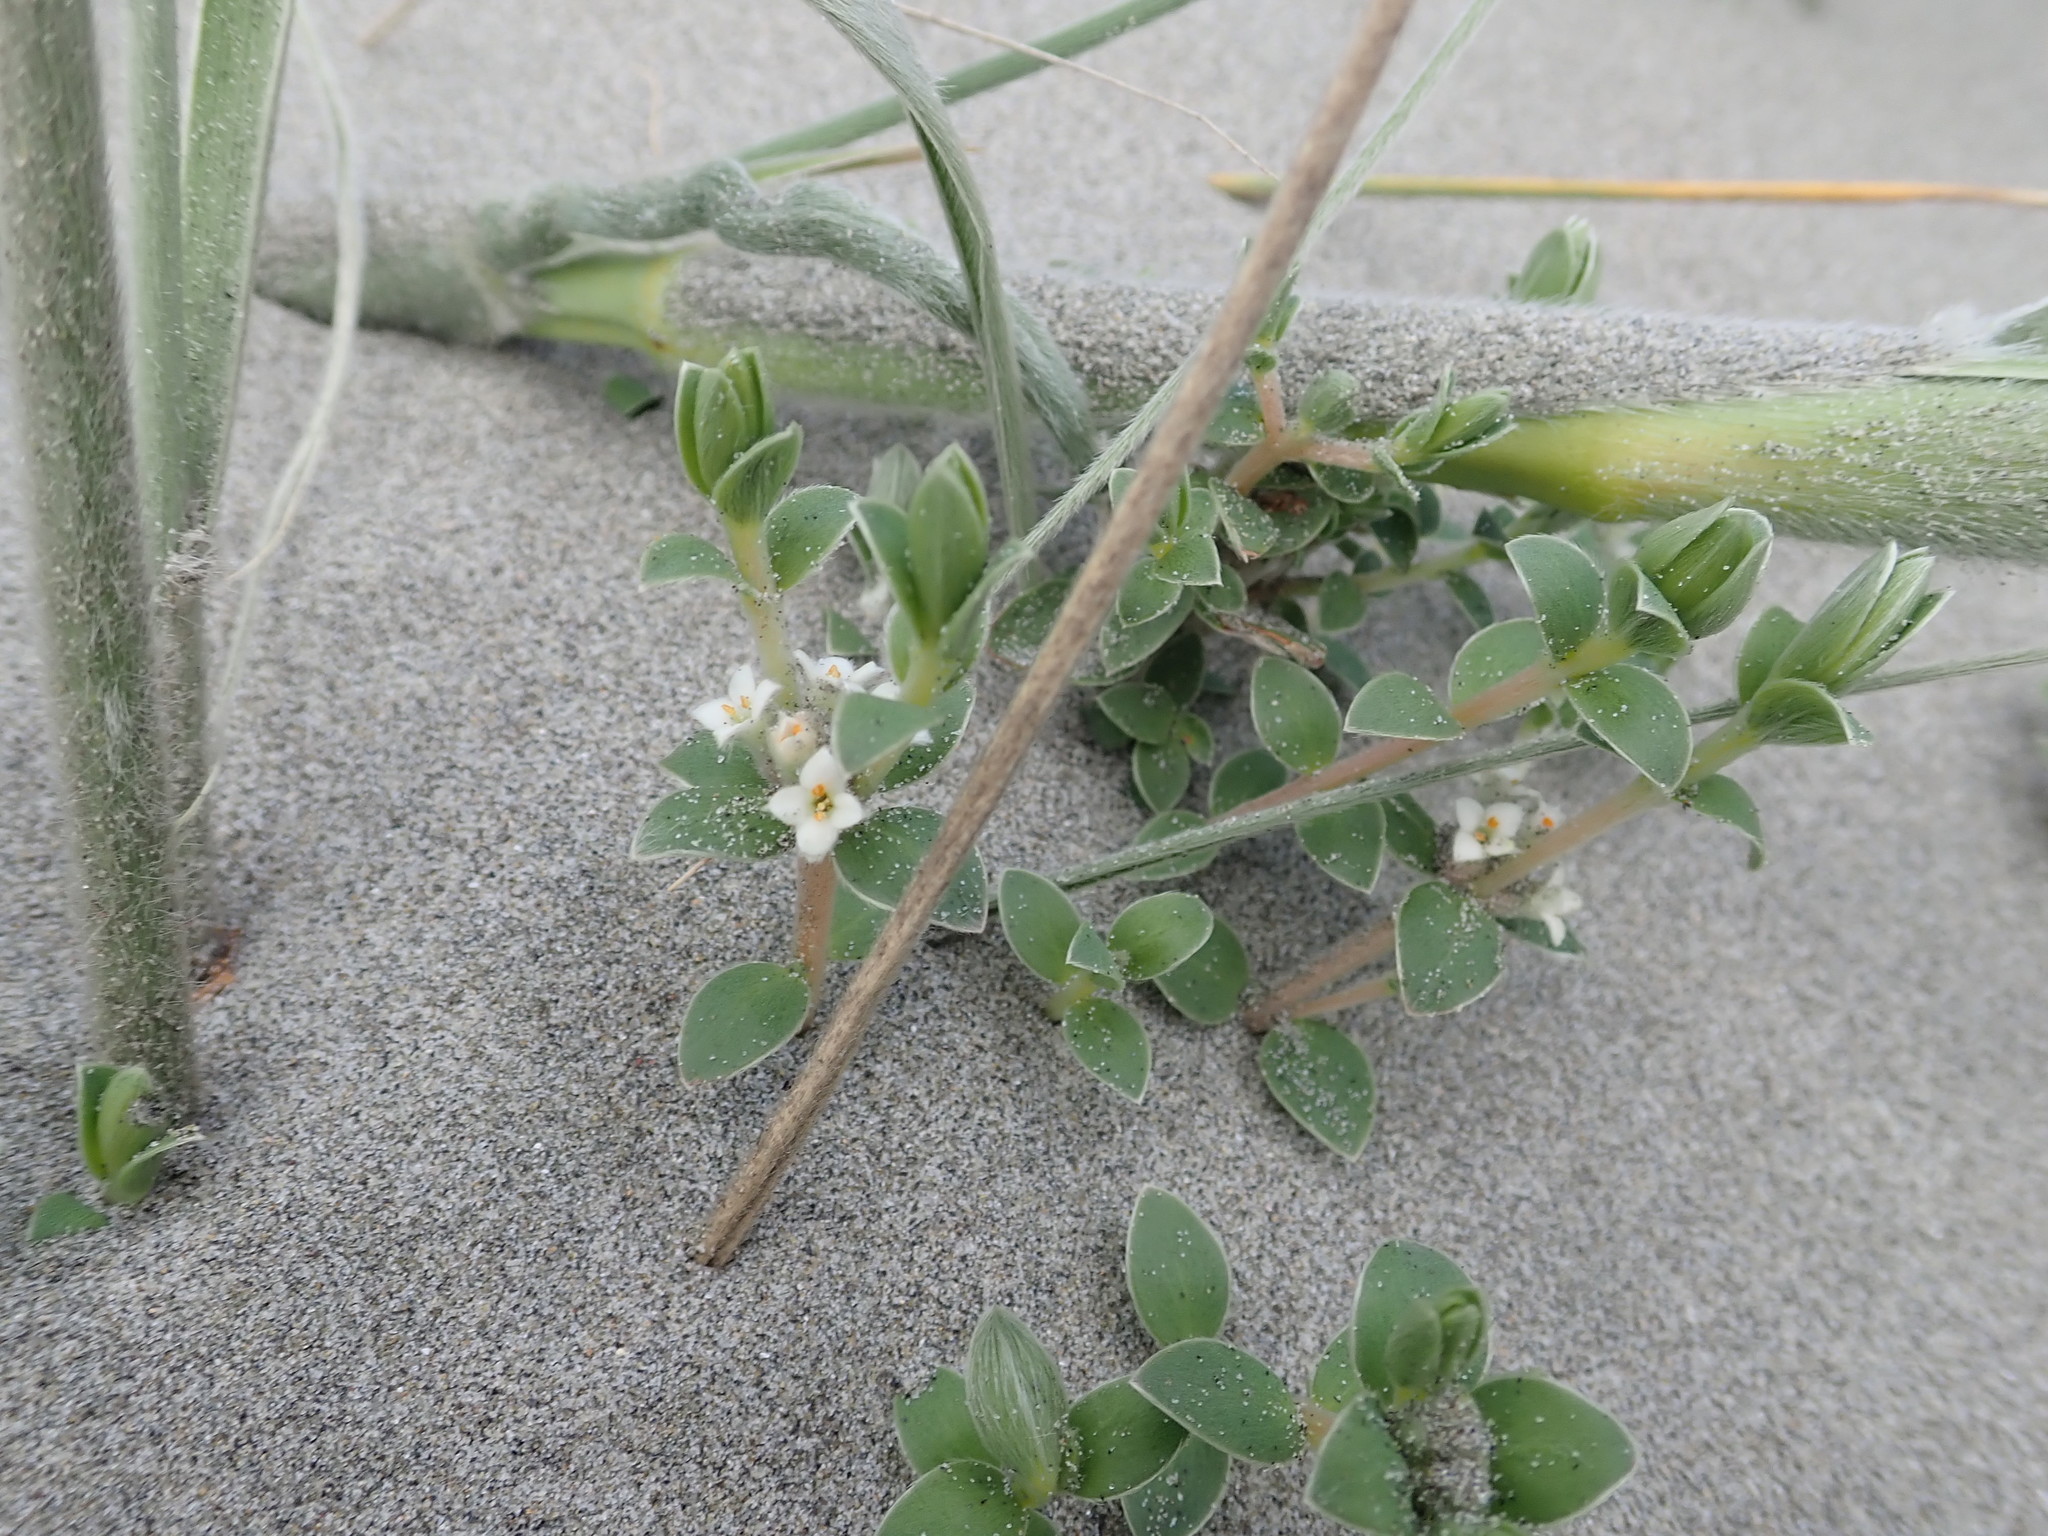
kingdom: Plantae
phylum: Tracheophyta
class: Magnoliopsida
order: Malvales
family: Thymelaeaceae
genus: Pimelea
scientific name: Pimelea villosa
